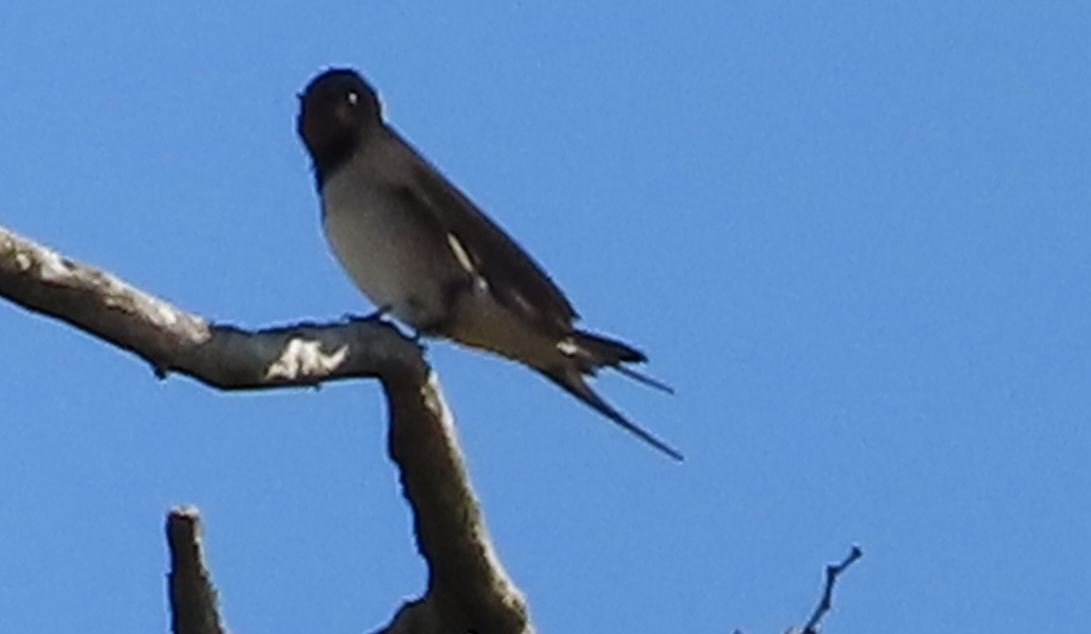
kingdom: Animalia
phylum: Chordata
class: Aves
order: Passeriformes
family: Hirundinidae
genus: Hirundo
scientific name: Hirundo rustica
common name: Barn swallow
